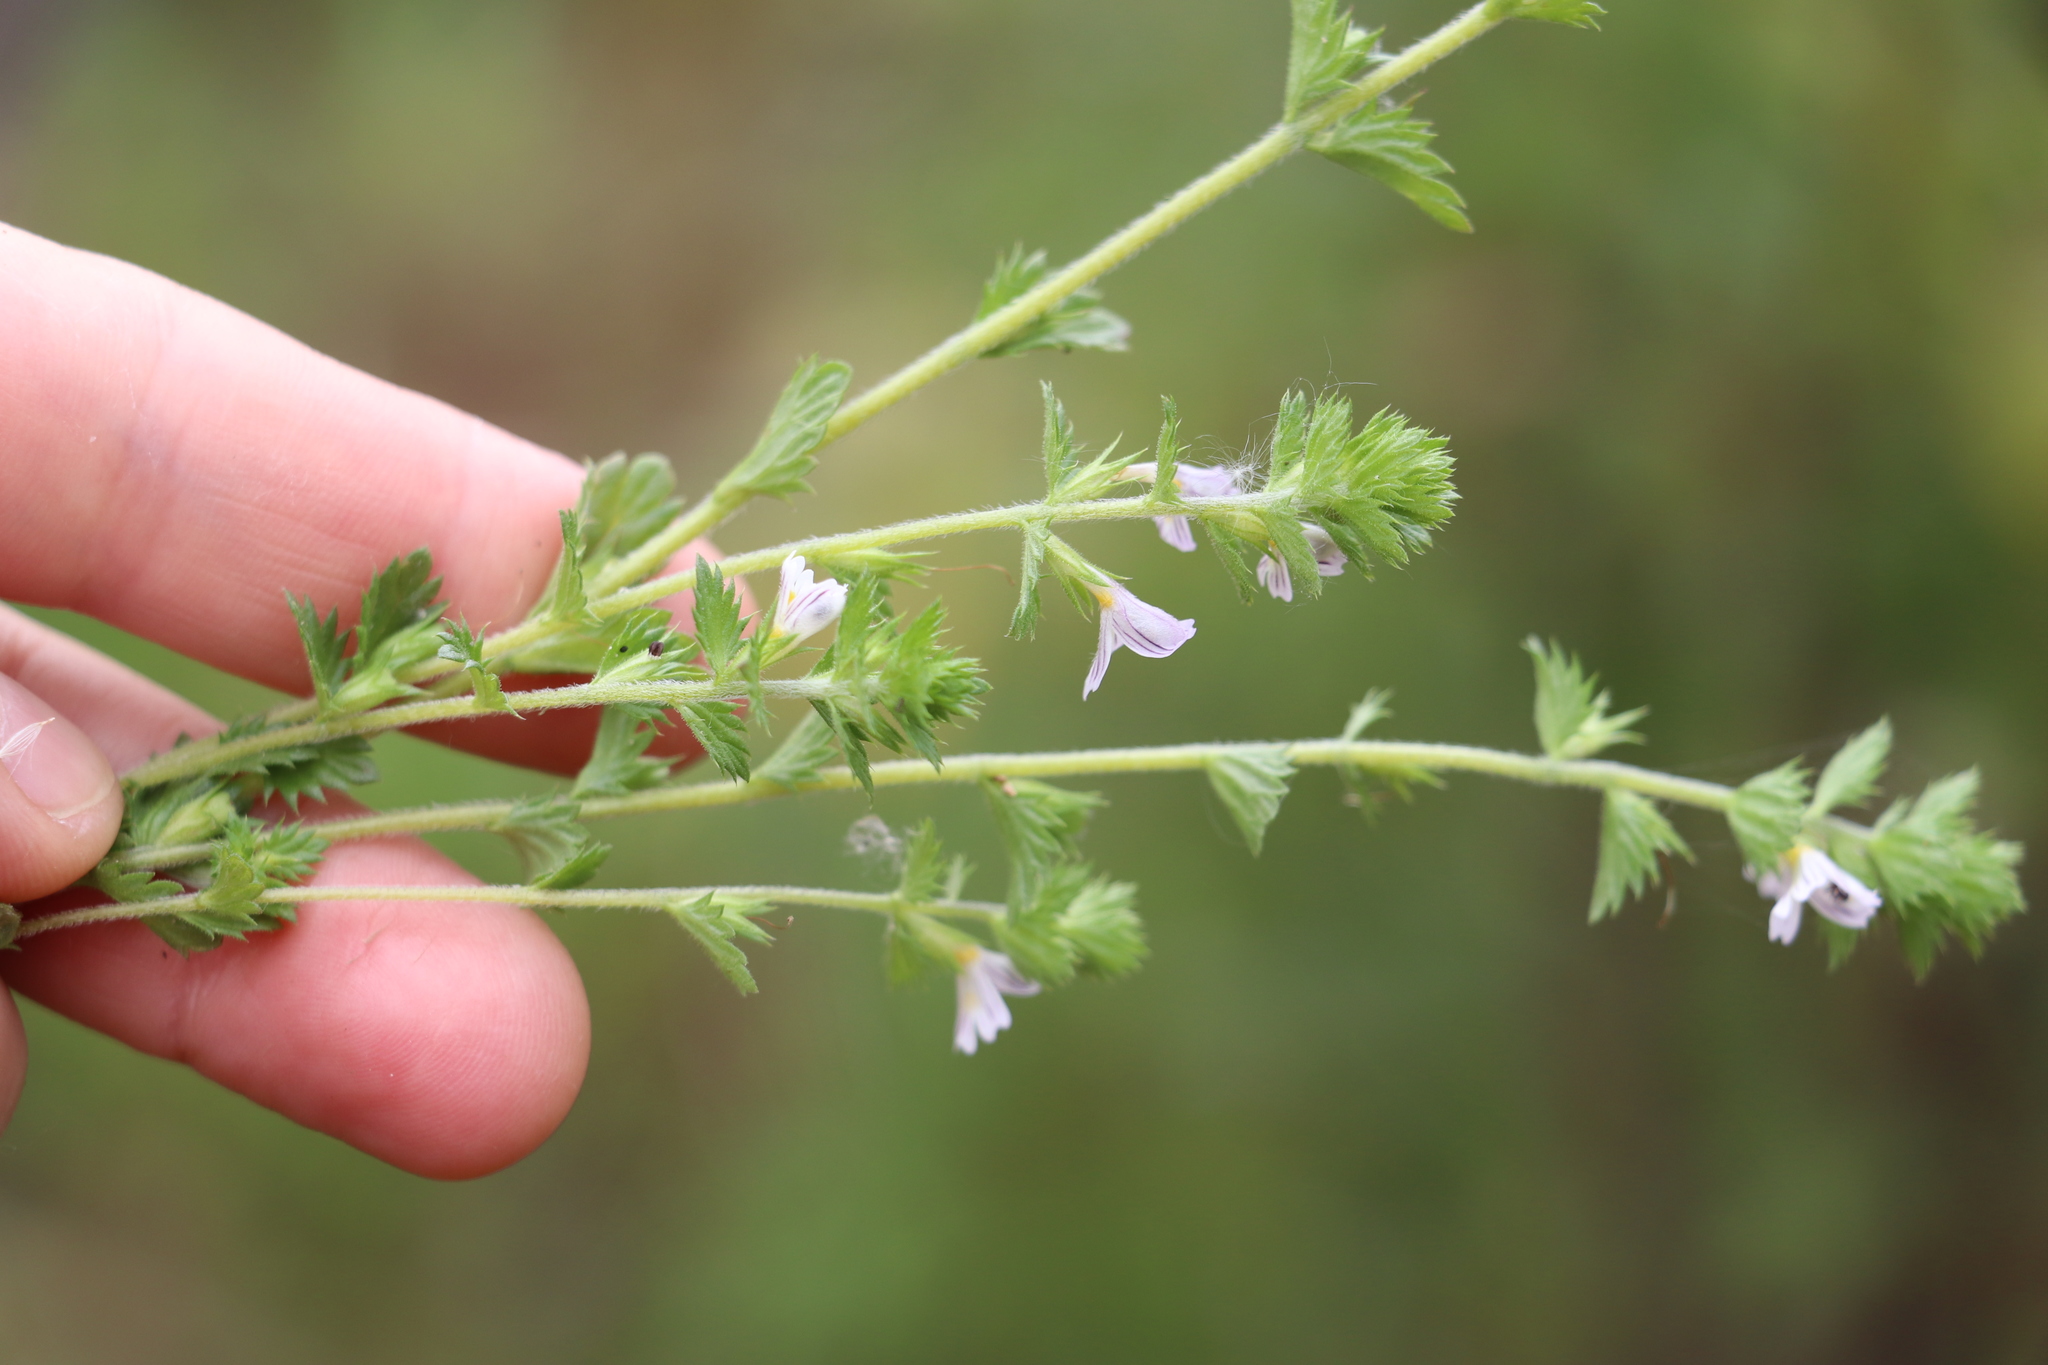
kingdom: Plantae
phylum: Tracheophyta
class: Magnoliopsida
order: Lamiales
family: Orobanchaceae
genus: Euphrasia
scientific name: Euphrasia
